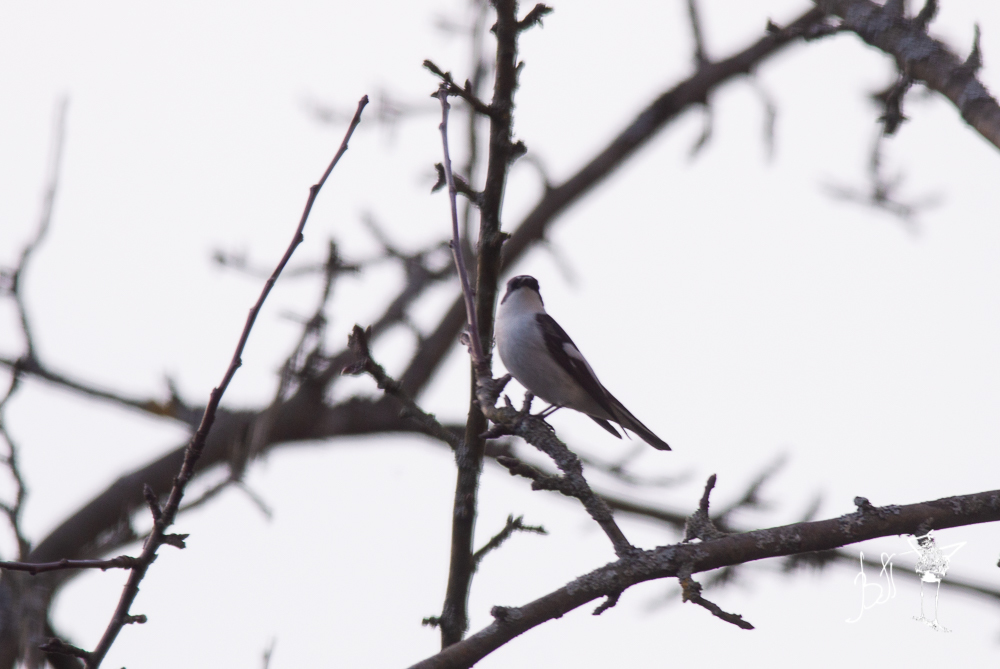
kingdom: Animalia
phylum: Chordata
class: Aves
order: Passeriformes
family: Muscicapidae
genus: Ficedula
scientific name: Ficedula hypoleuca
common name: European pied flycatcher
